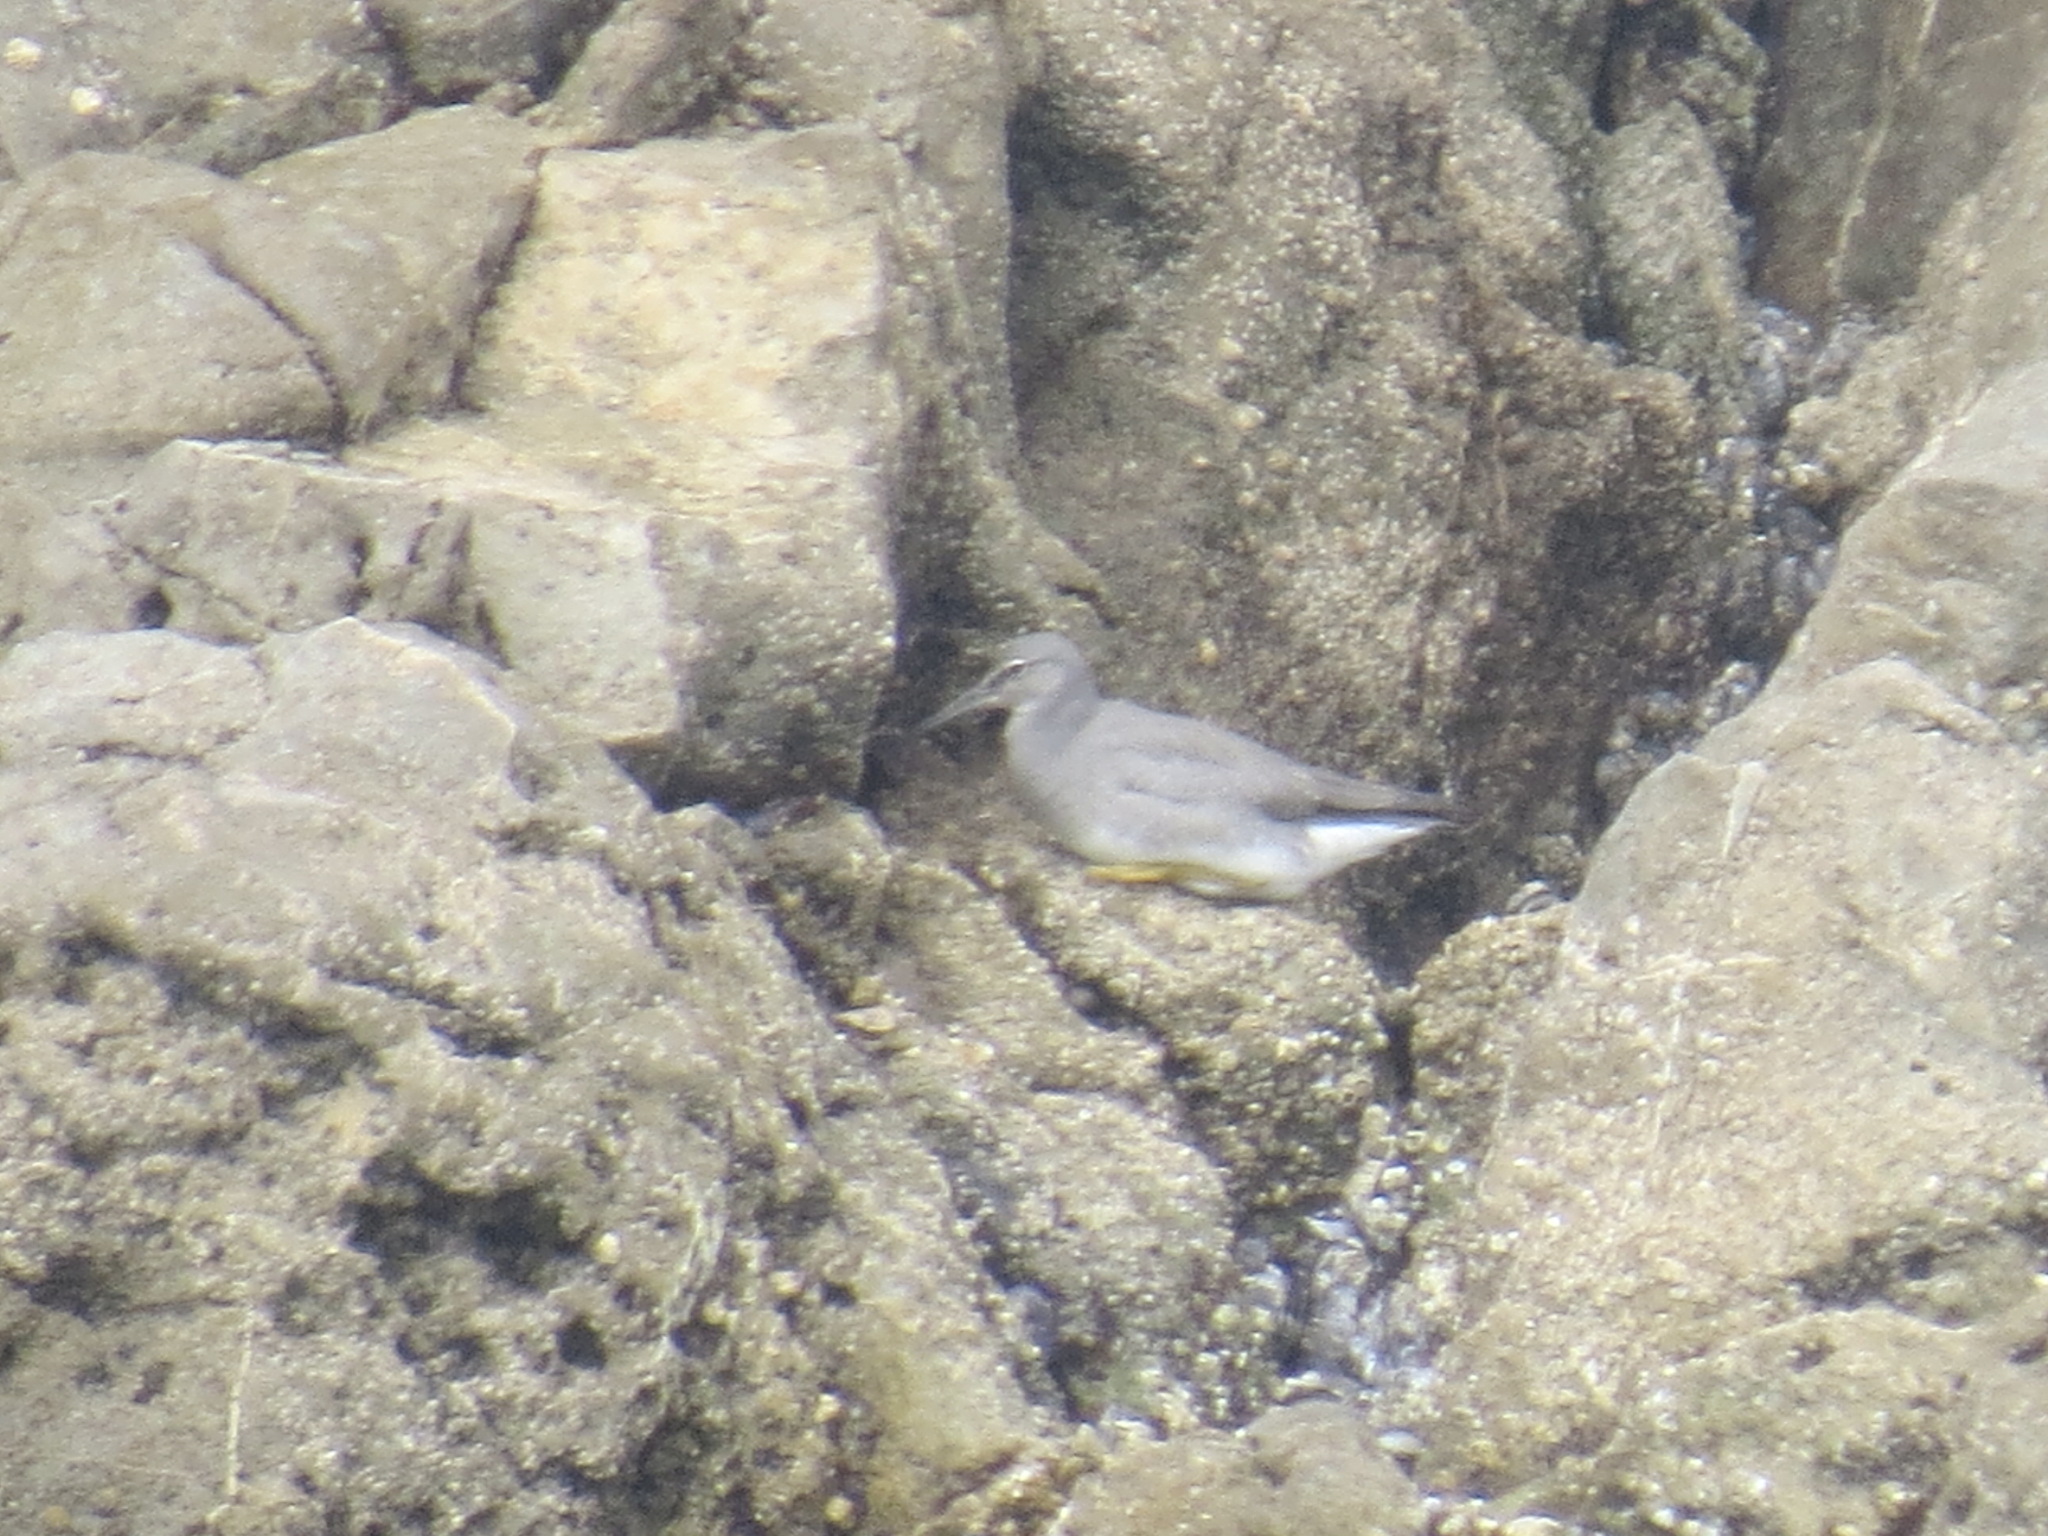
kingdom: Animalia
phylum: Chordata
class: Aves
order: Charadriiformes
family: Scolopacidae
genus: Tringa
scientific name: Tringa incana
